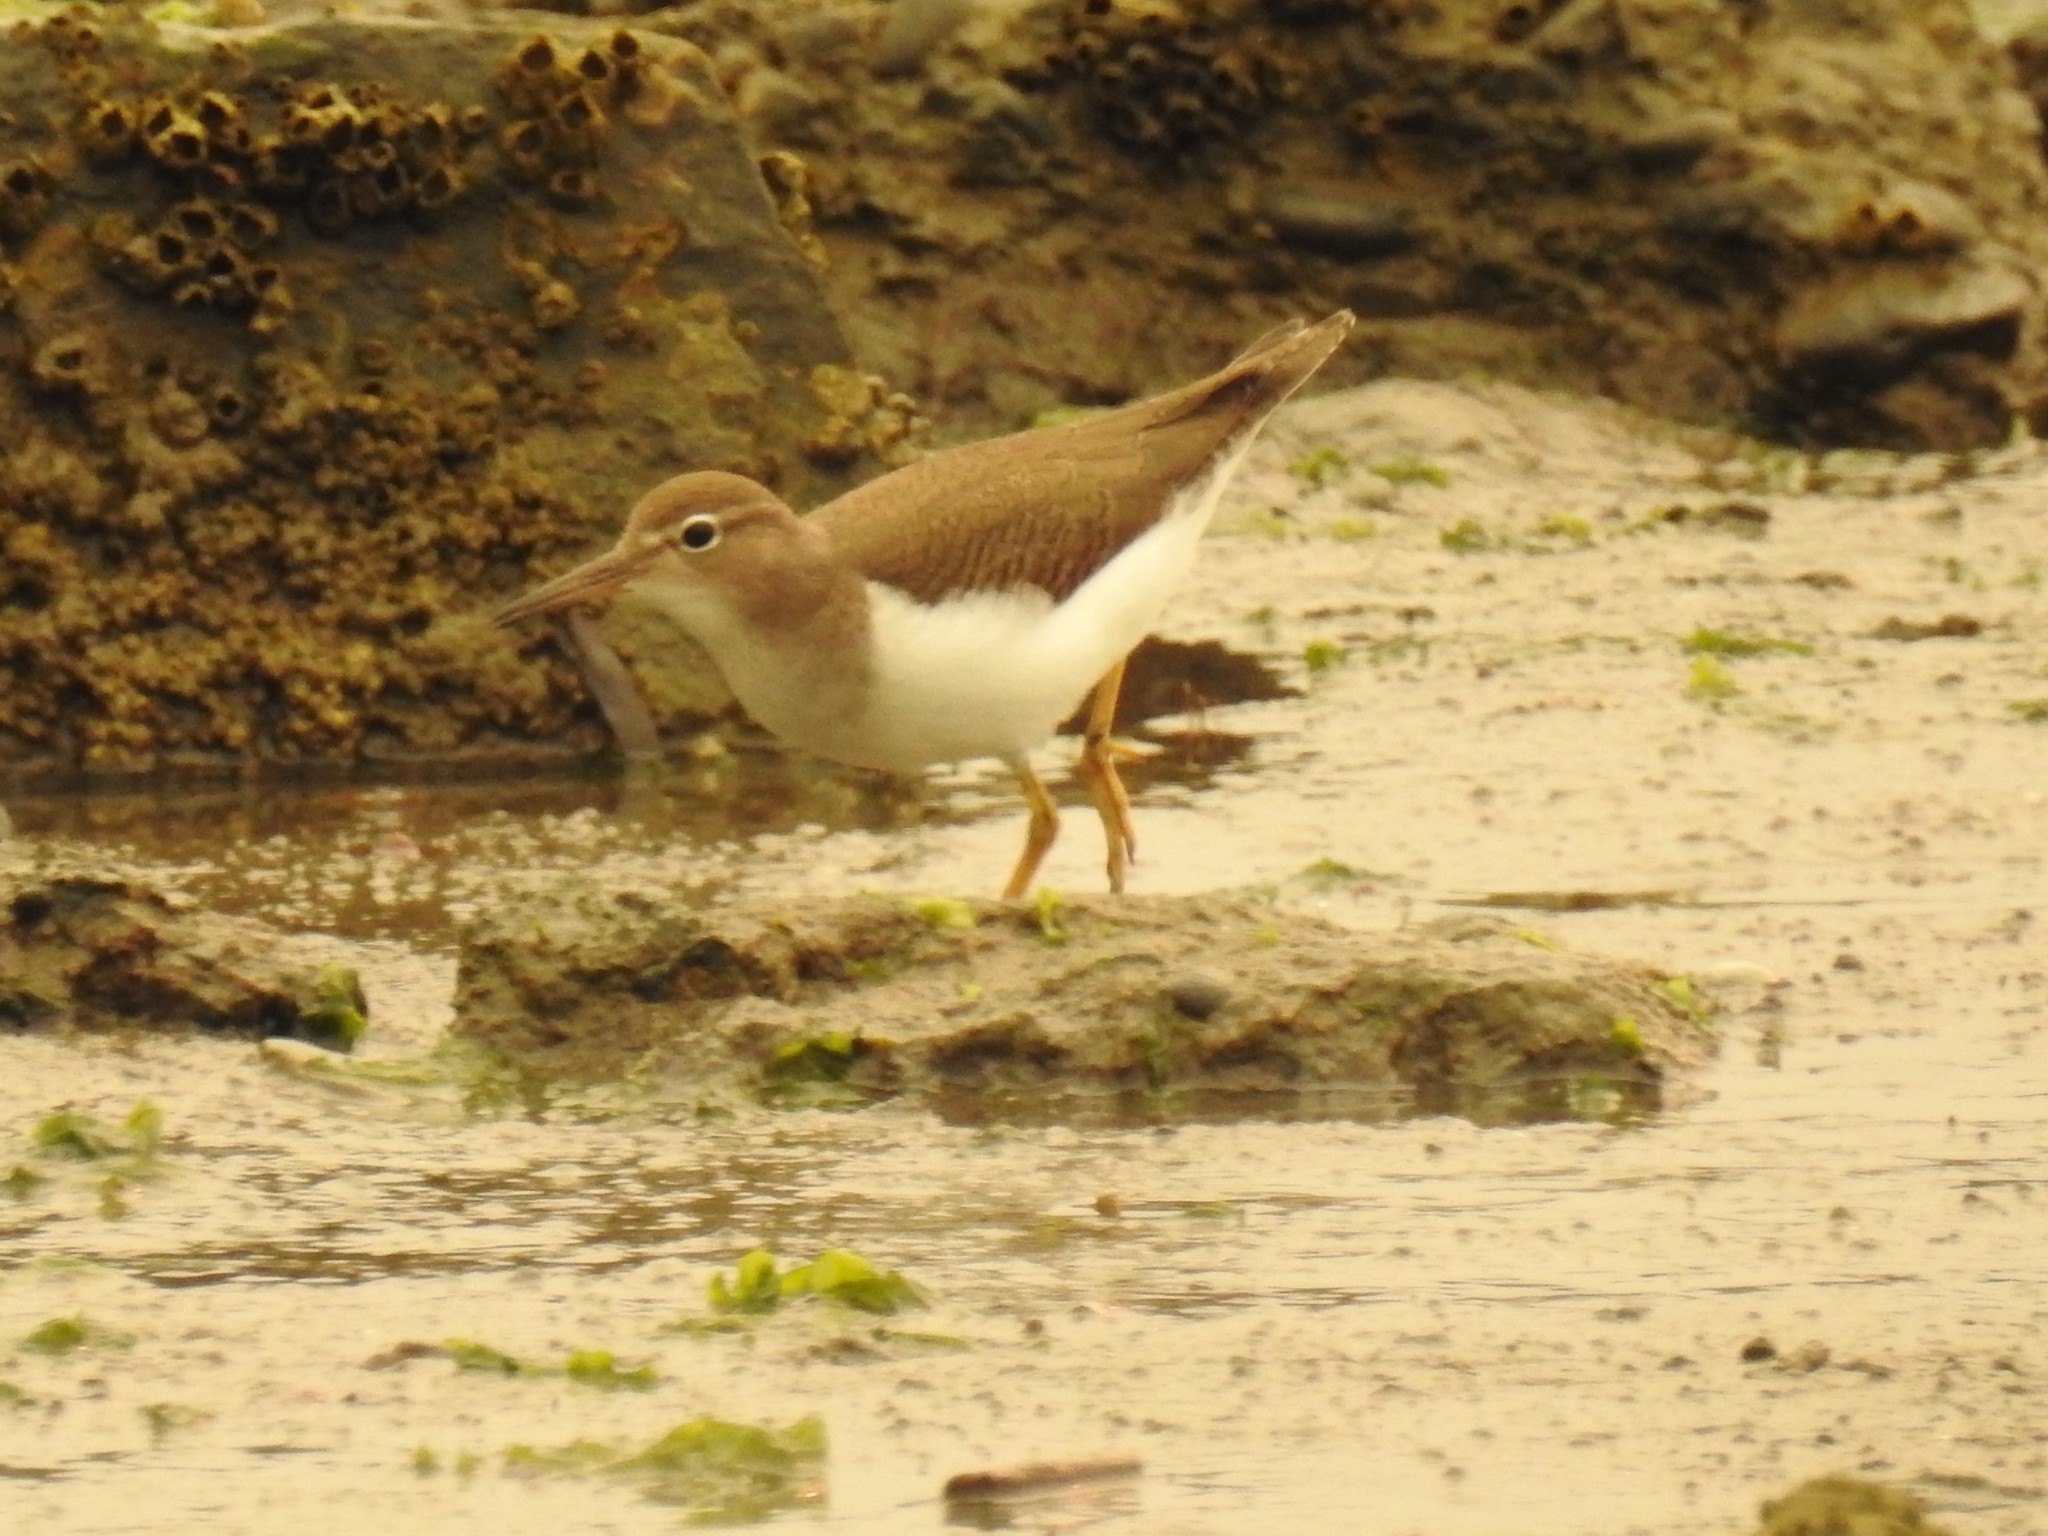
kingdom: Animalia
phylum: Chordata
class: Aves
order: Charadriiformes
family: Scolopacidae
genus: Actitis
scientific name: Actitis macularius
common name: Spotted sandpiper
